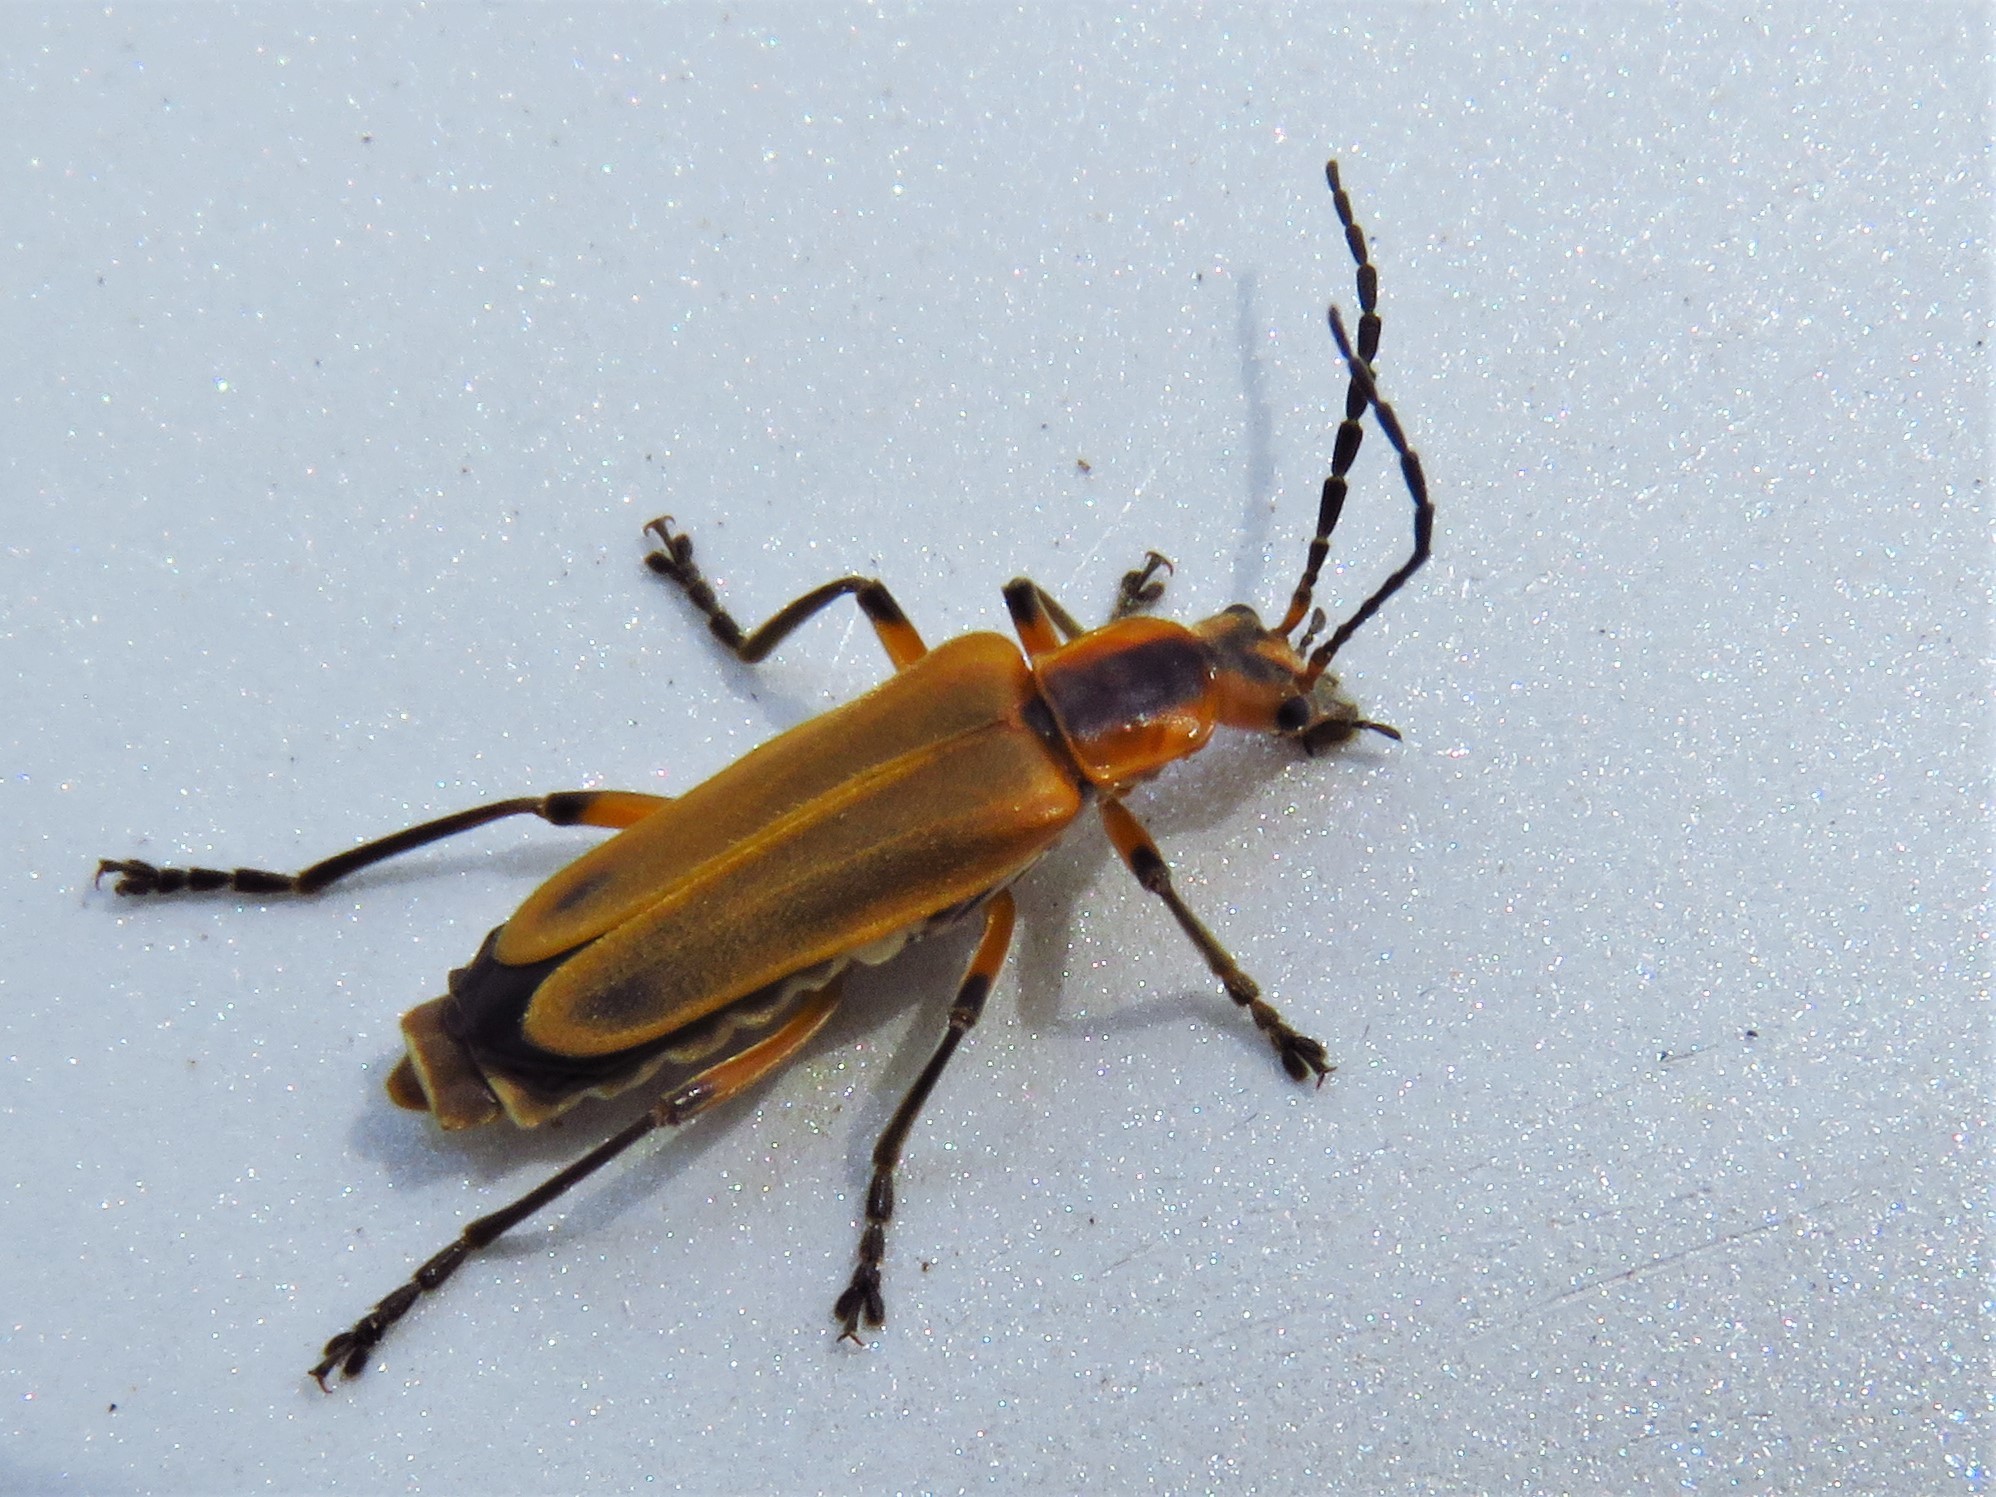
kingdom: Animalia
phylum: Arthropoda
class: Insecta
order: Coleoptera
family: Cantharidae
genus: Chauliognathus
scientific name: Chauliognathus marginatus
